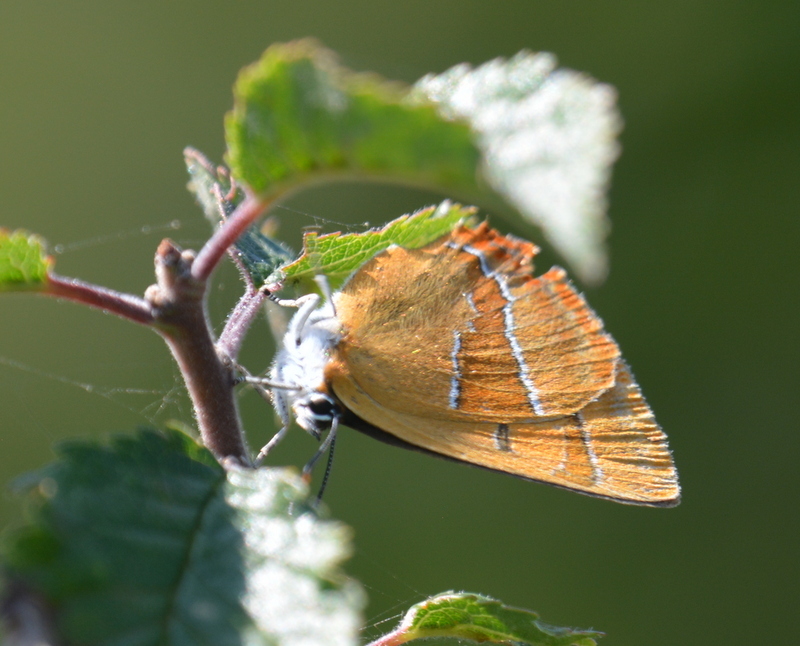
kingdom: Animalia
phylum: Arthropoda
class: Insecta
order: Lepidoptera
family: Lycaenidae
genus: Thecla
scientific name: Thecla betulae
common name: Brown hairstreak
